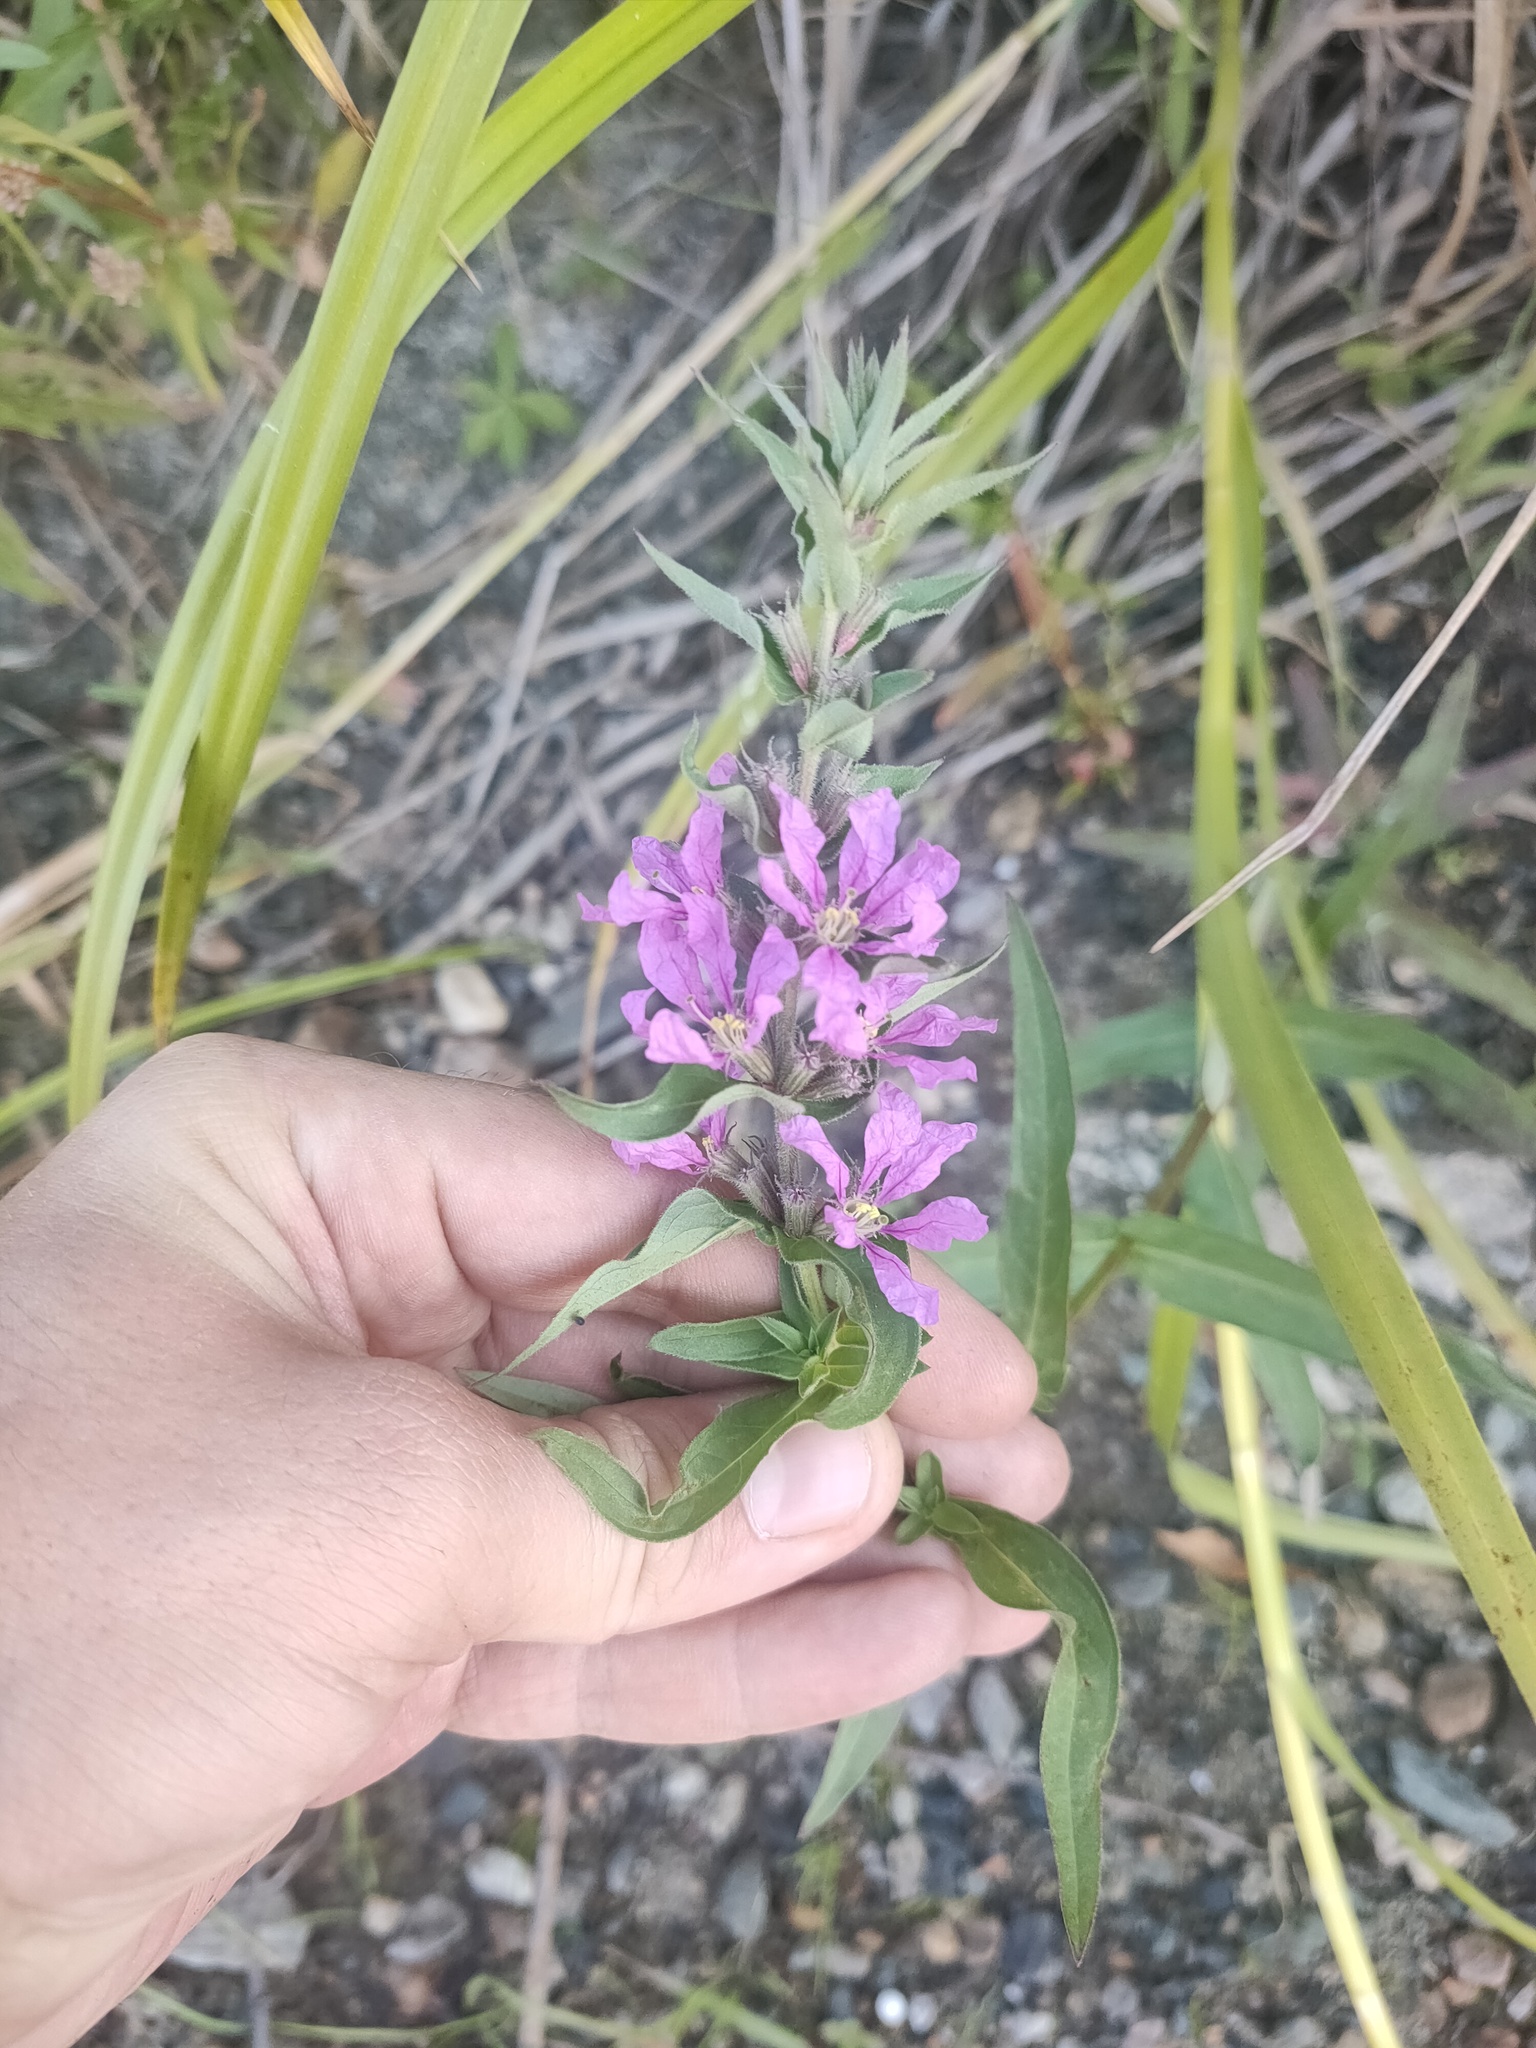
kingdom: Plantae
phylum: Tracheophyta
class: Magnoliopsida
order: Myrtales
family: Lythraceae
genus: Lythrum
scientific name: Lythrum salicaria
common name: Purple loosestrife
